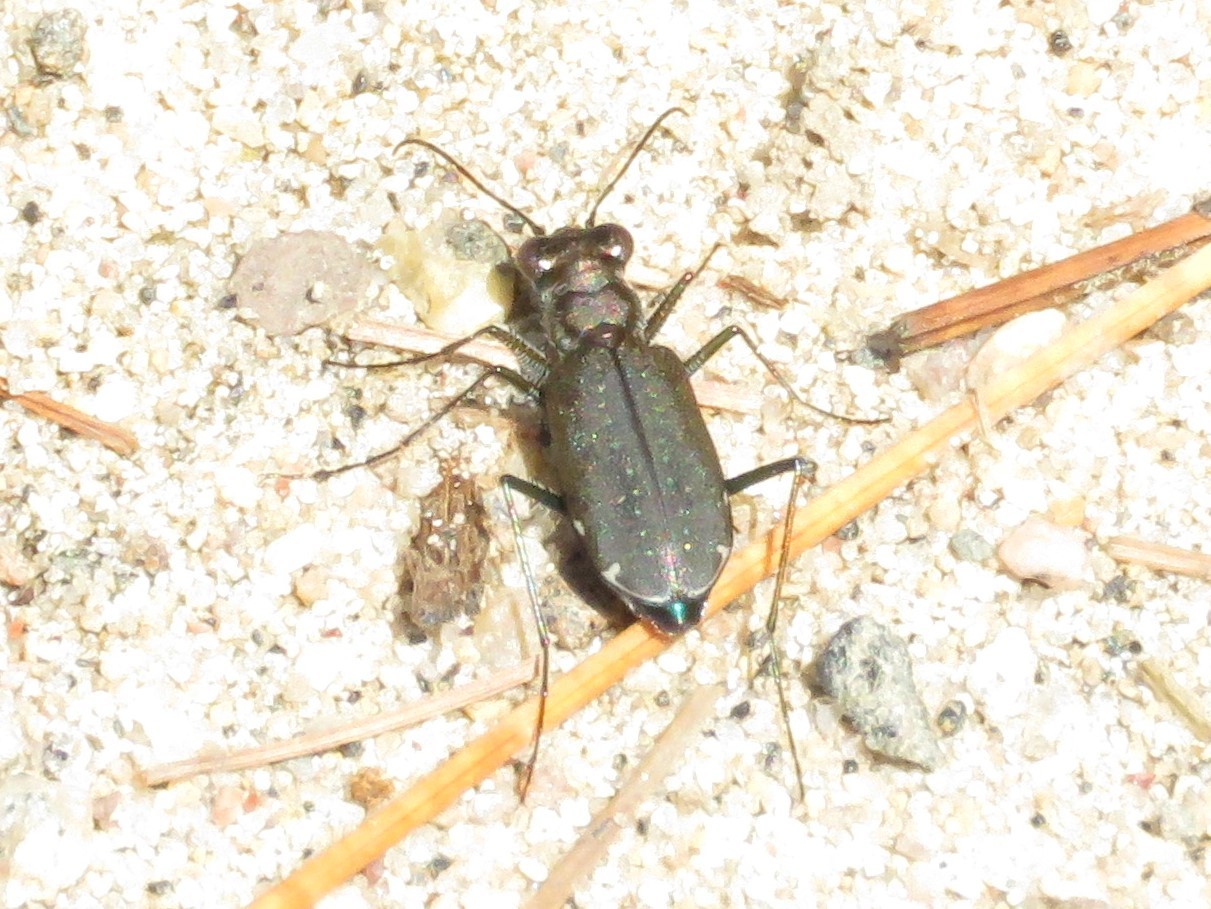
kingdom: Animalia
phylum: Arthropoda
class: Insecta
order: Coleoptera
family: Carabidae
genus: Cicindela
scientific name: Cicindela punctulata
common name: Punctured tiger beetle
